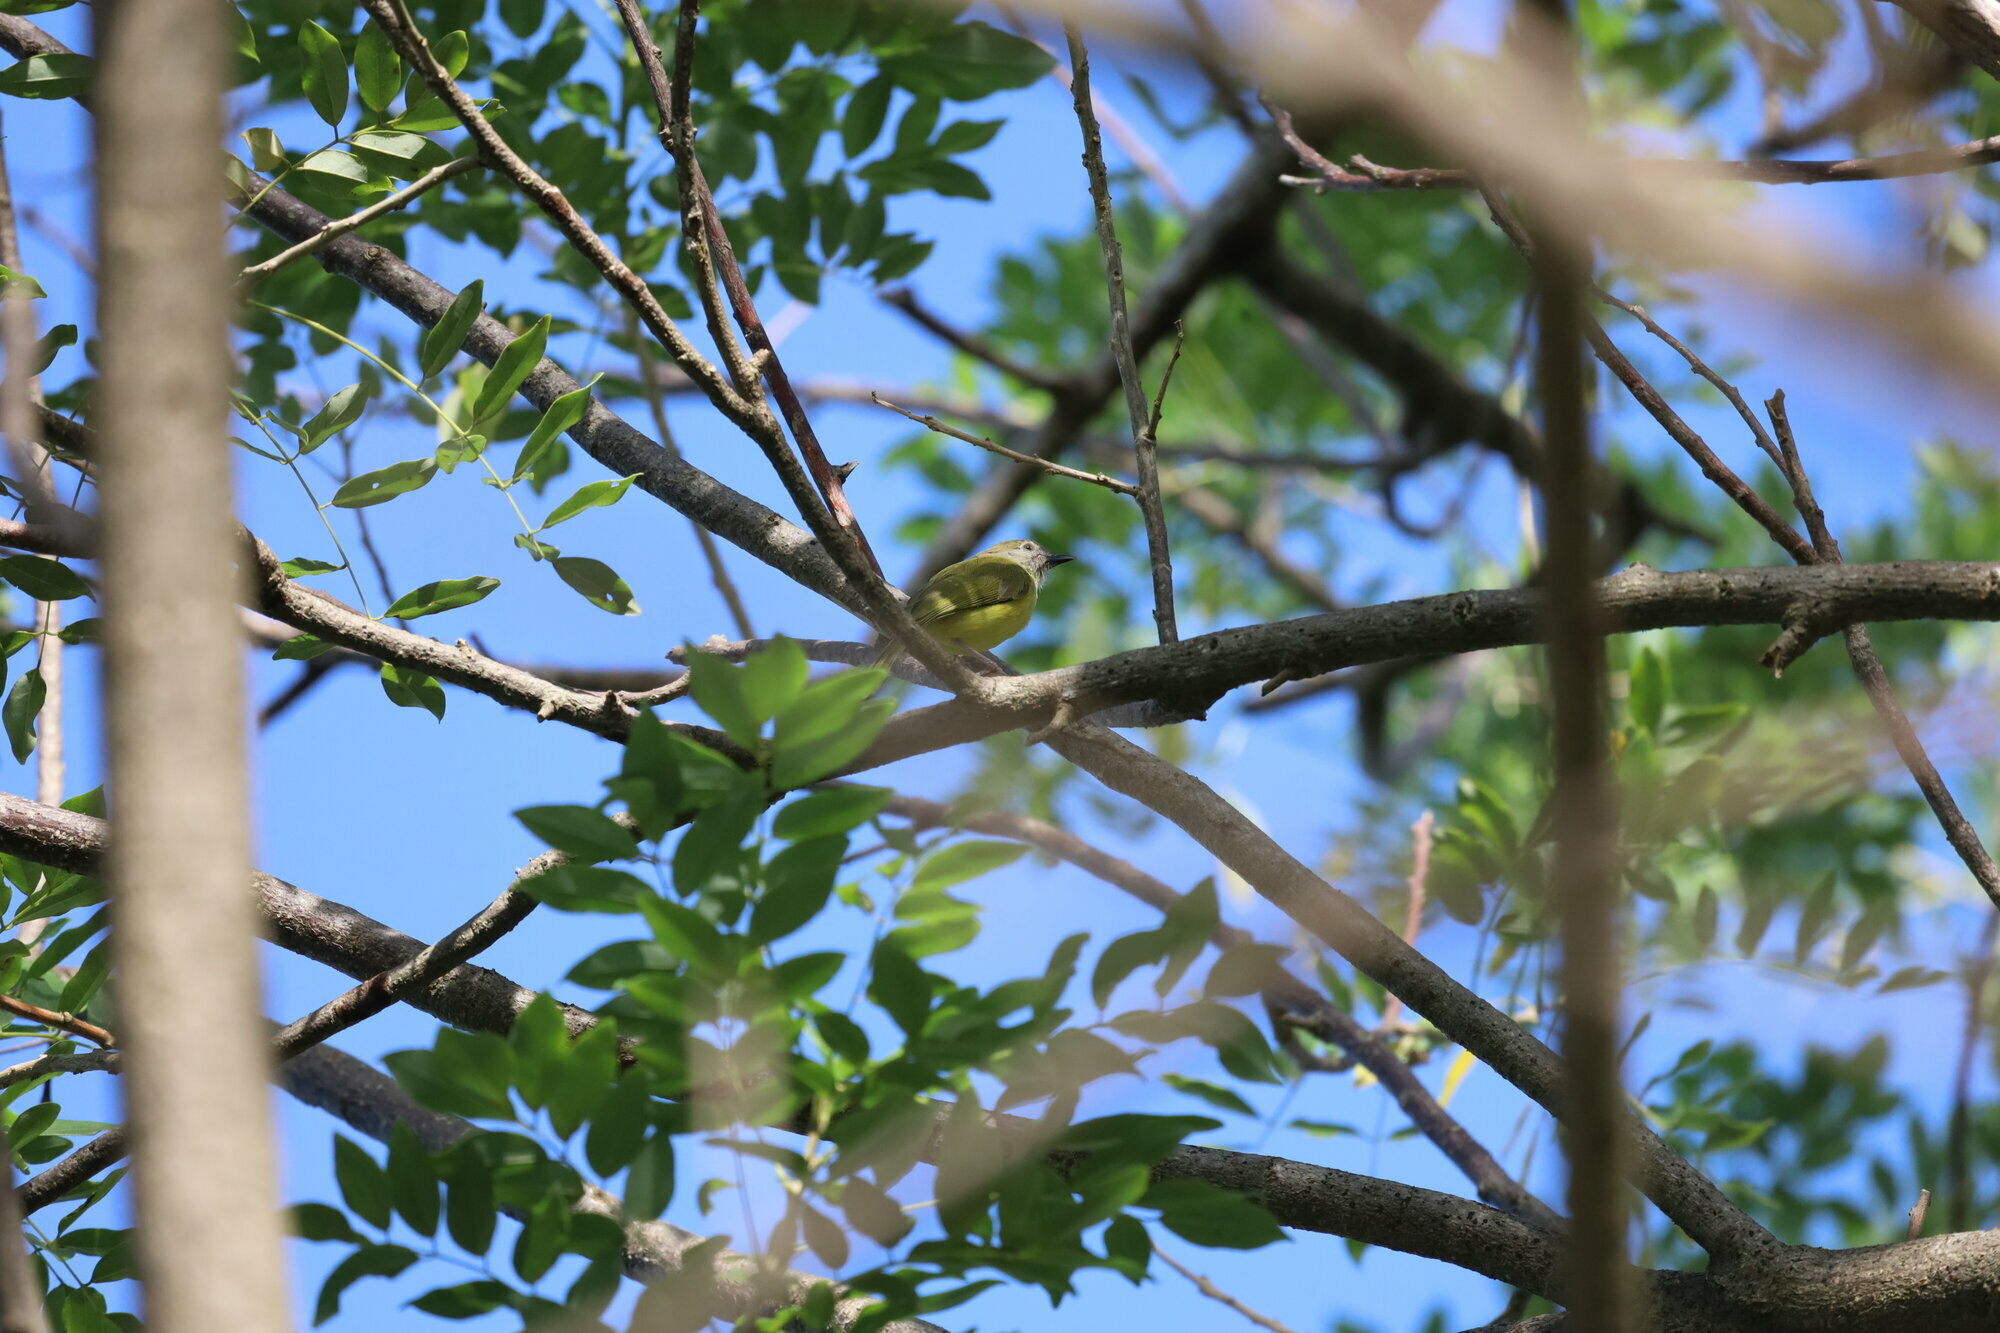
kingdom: Animalia
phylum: Chordata
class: Aves
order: Passeriformes
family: Vireonidae
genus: Hylophilus
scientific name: Hylophilus flavipes
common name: Scrub greenlet
